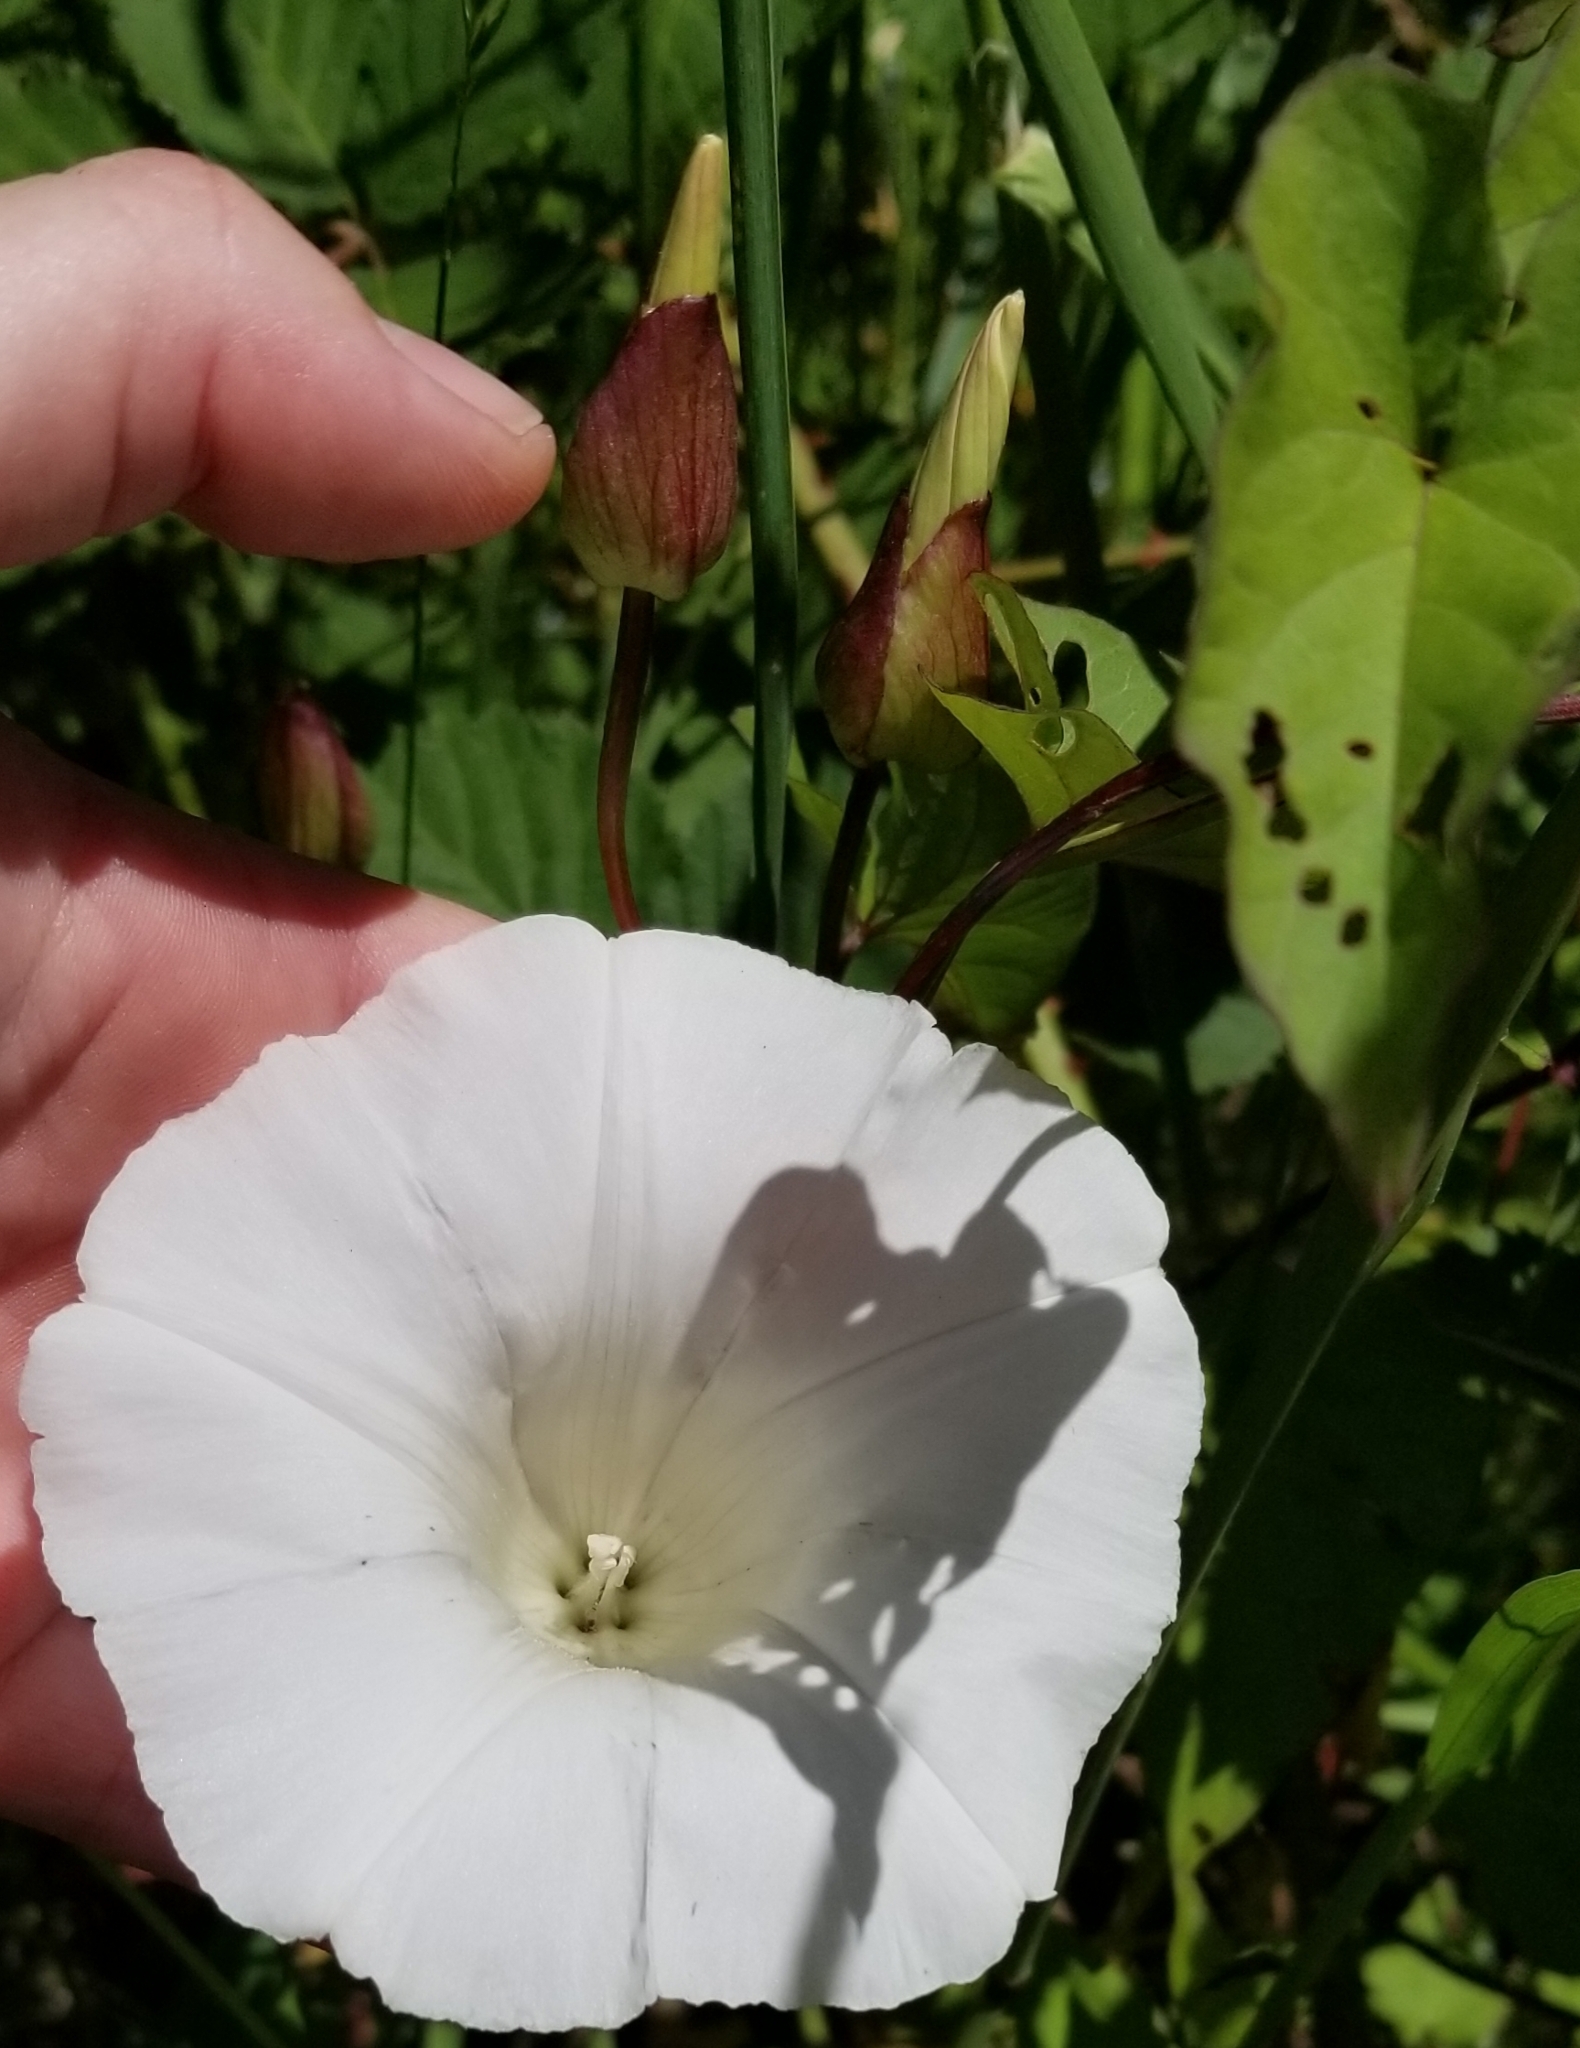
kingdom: Plantae
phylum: Tracheophyta
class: Magnoliopsida
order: Solanales
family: Convolvulaceae
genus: Calystegia
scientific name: Calystegia silvatica
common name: Large bindweed
